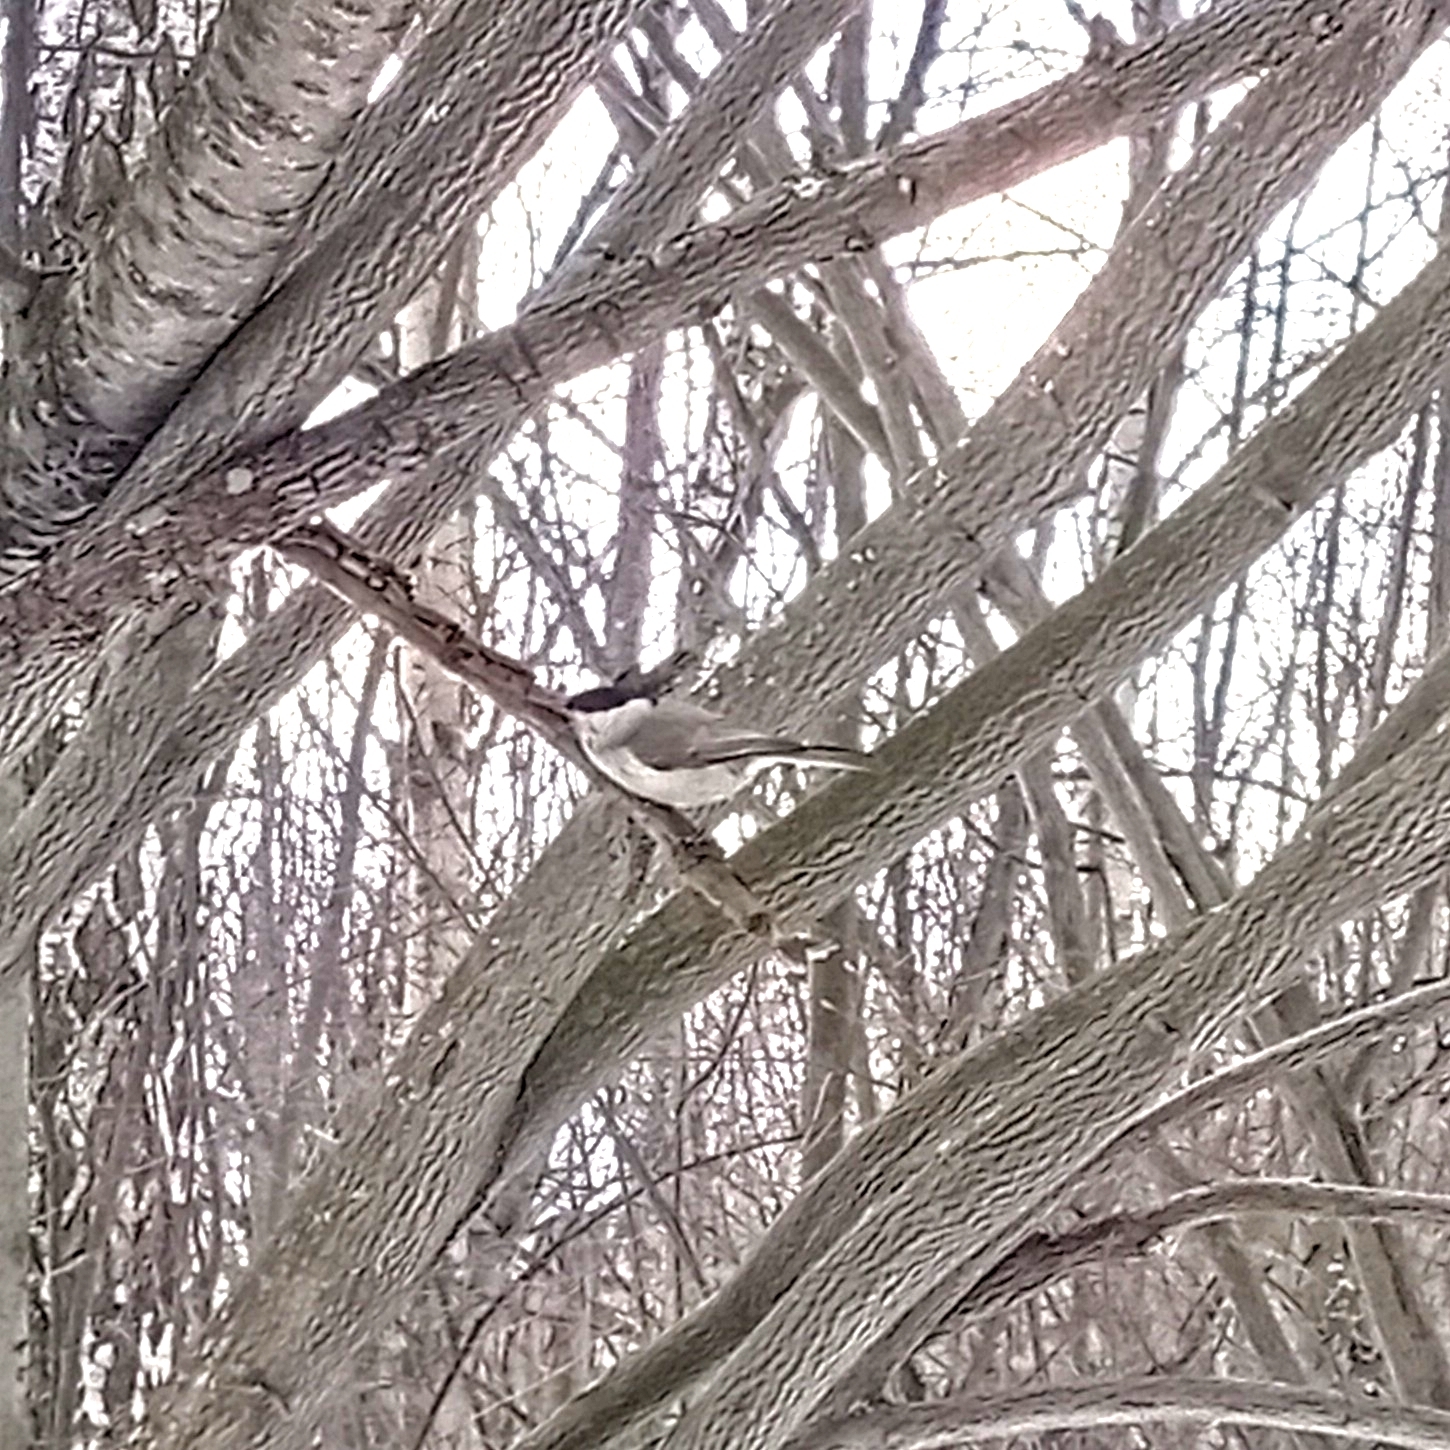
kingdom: Animalia
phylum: Chordata
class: Aves
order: Passeriformes
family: Paridae
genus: Poecile
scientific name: Poecile palustris
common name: Marsh tit
